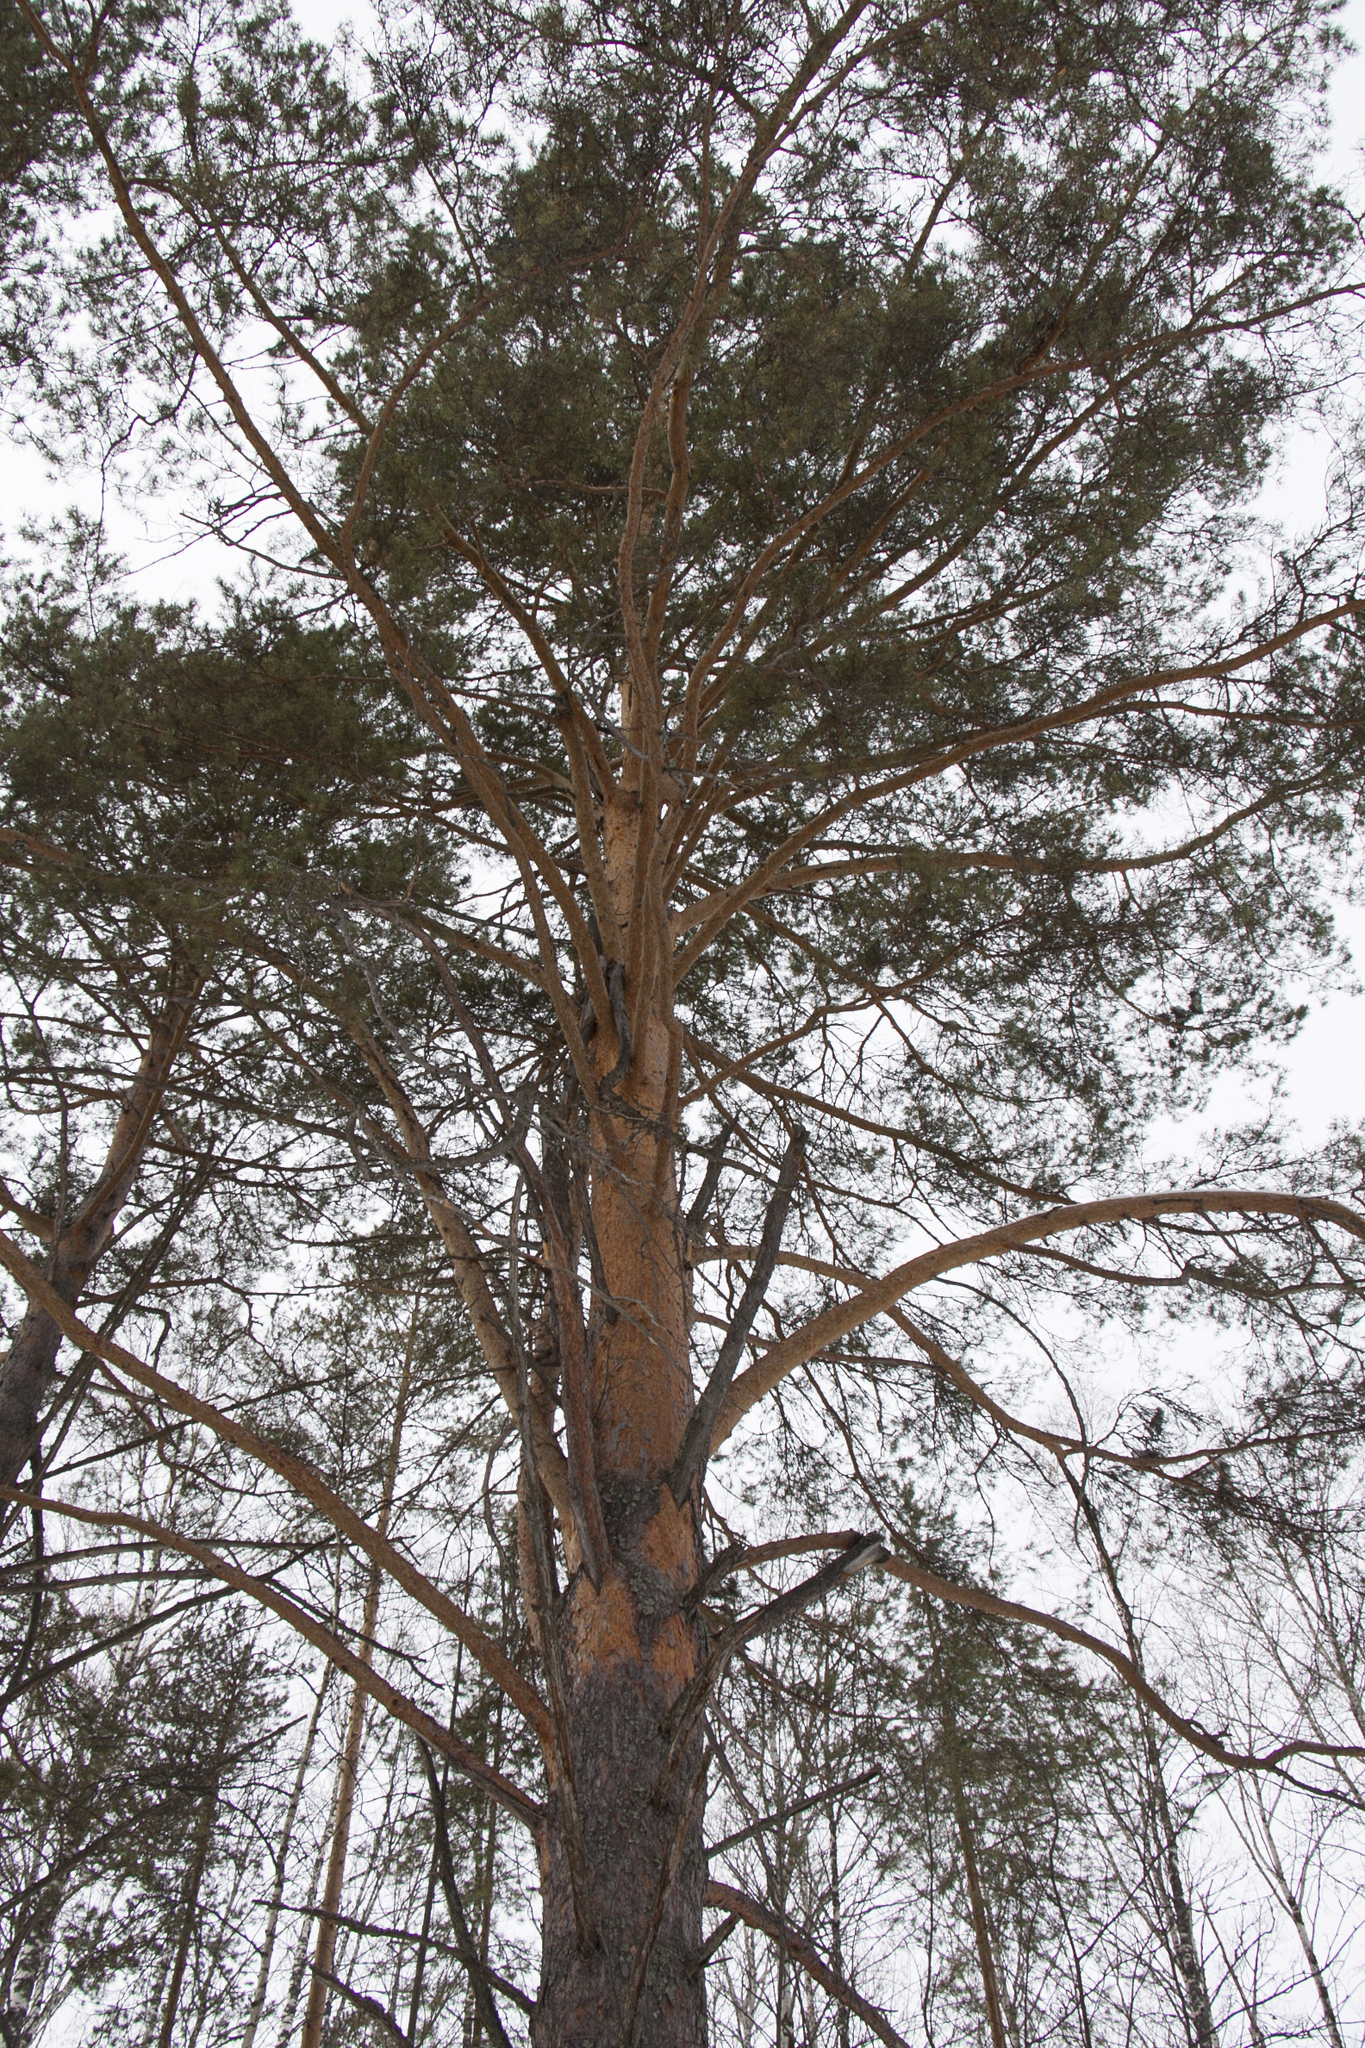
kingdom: Plantae
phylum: Tracheophyta
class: Pinopsida
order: Pinales
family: Pinaceae
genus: Pinus
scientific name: Pinus sylvestris
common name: Scots pine
